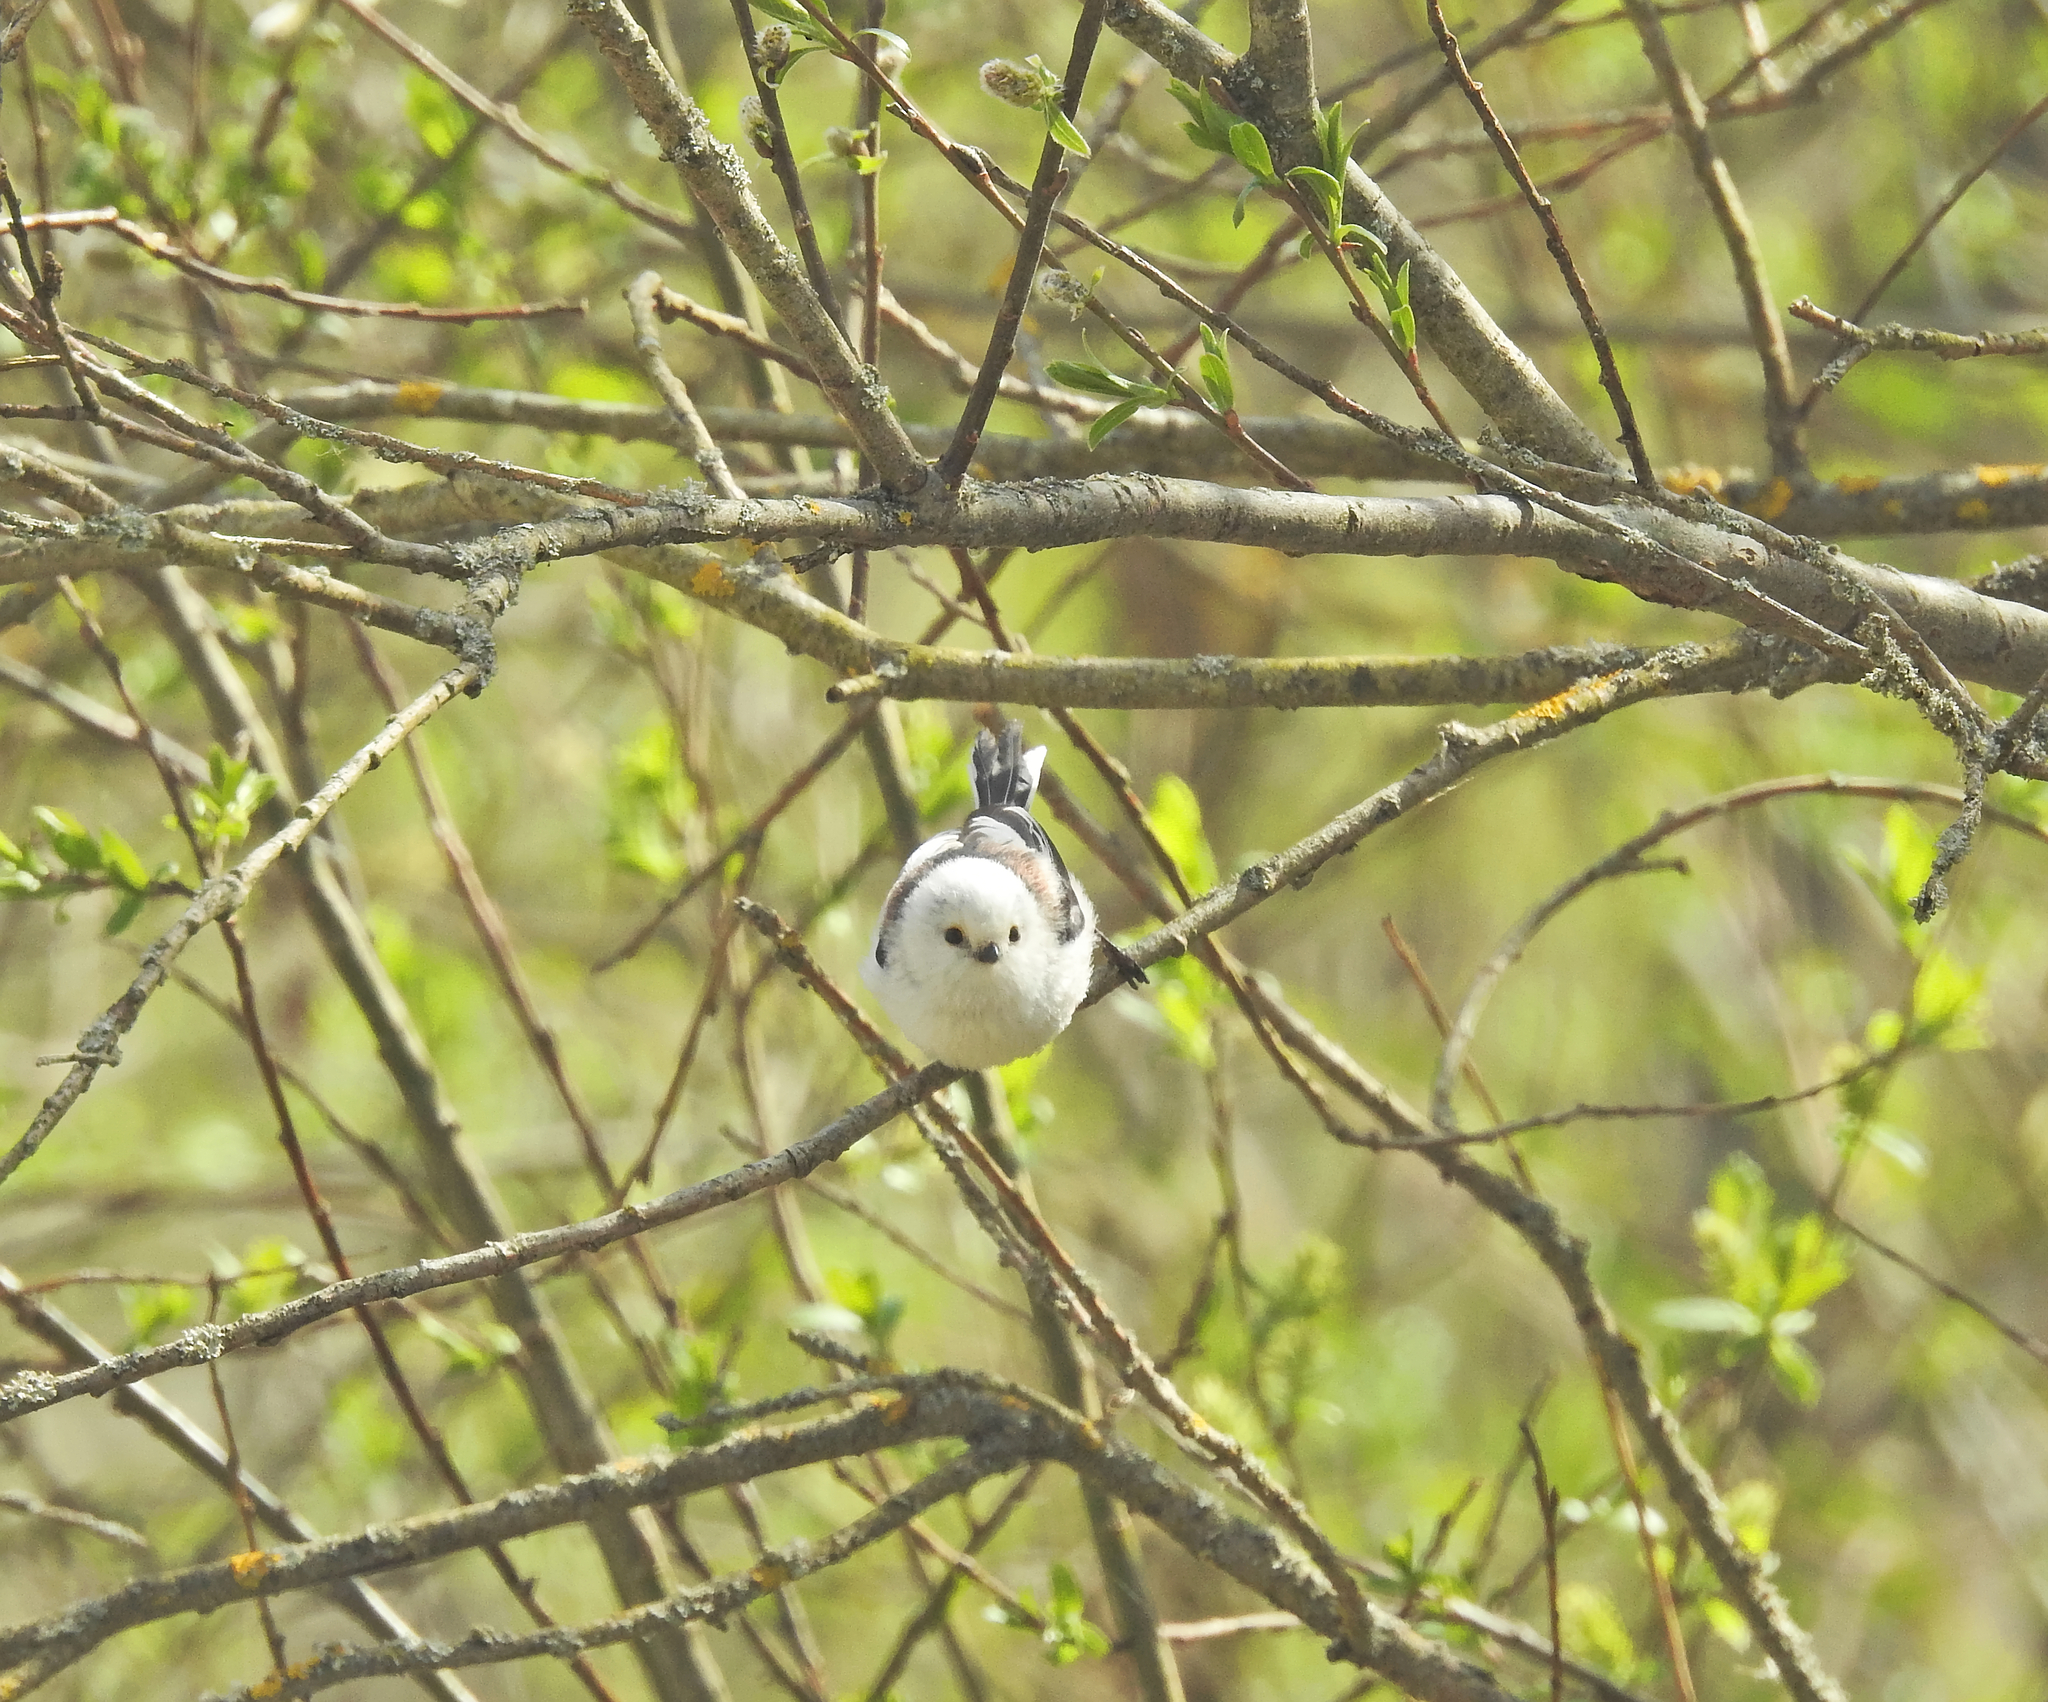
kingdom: Animalia
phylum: Chordata
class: Aves
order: Passeriformes
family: Aegithalidae
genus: Aegithalos
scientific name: Aegithalos caudatus
